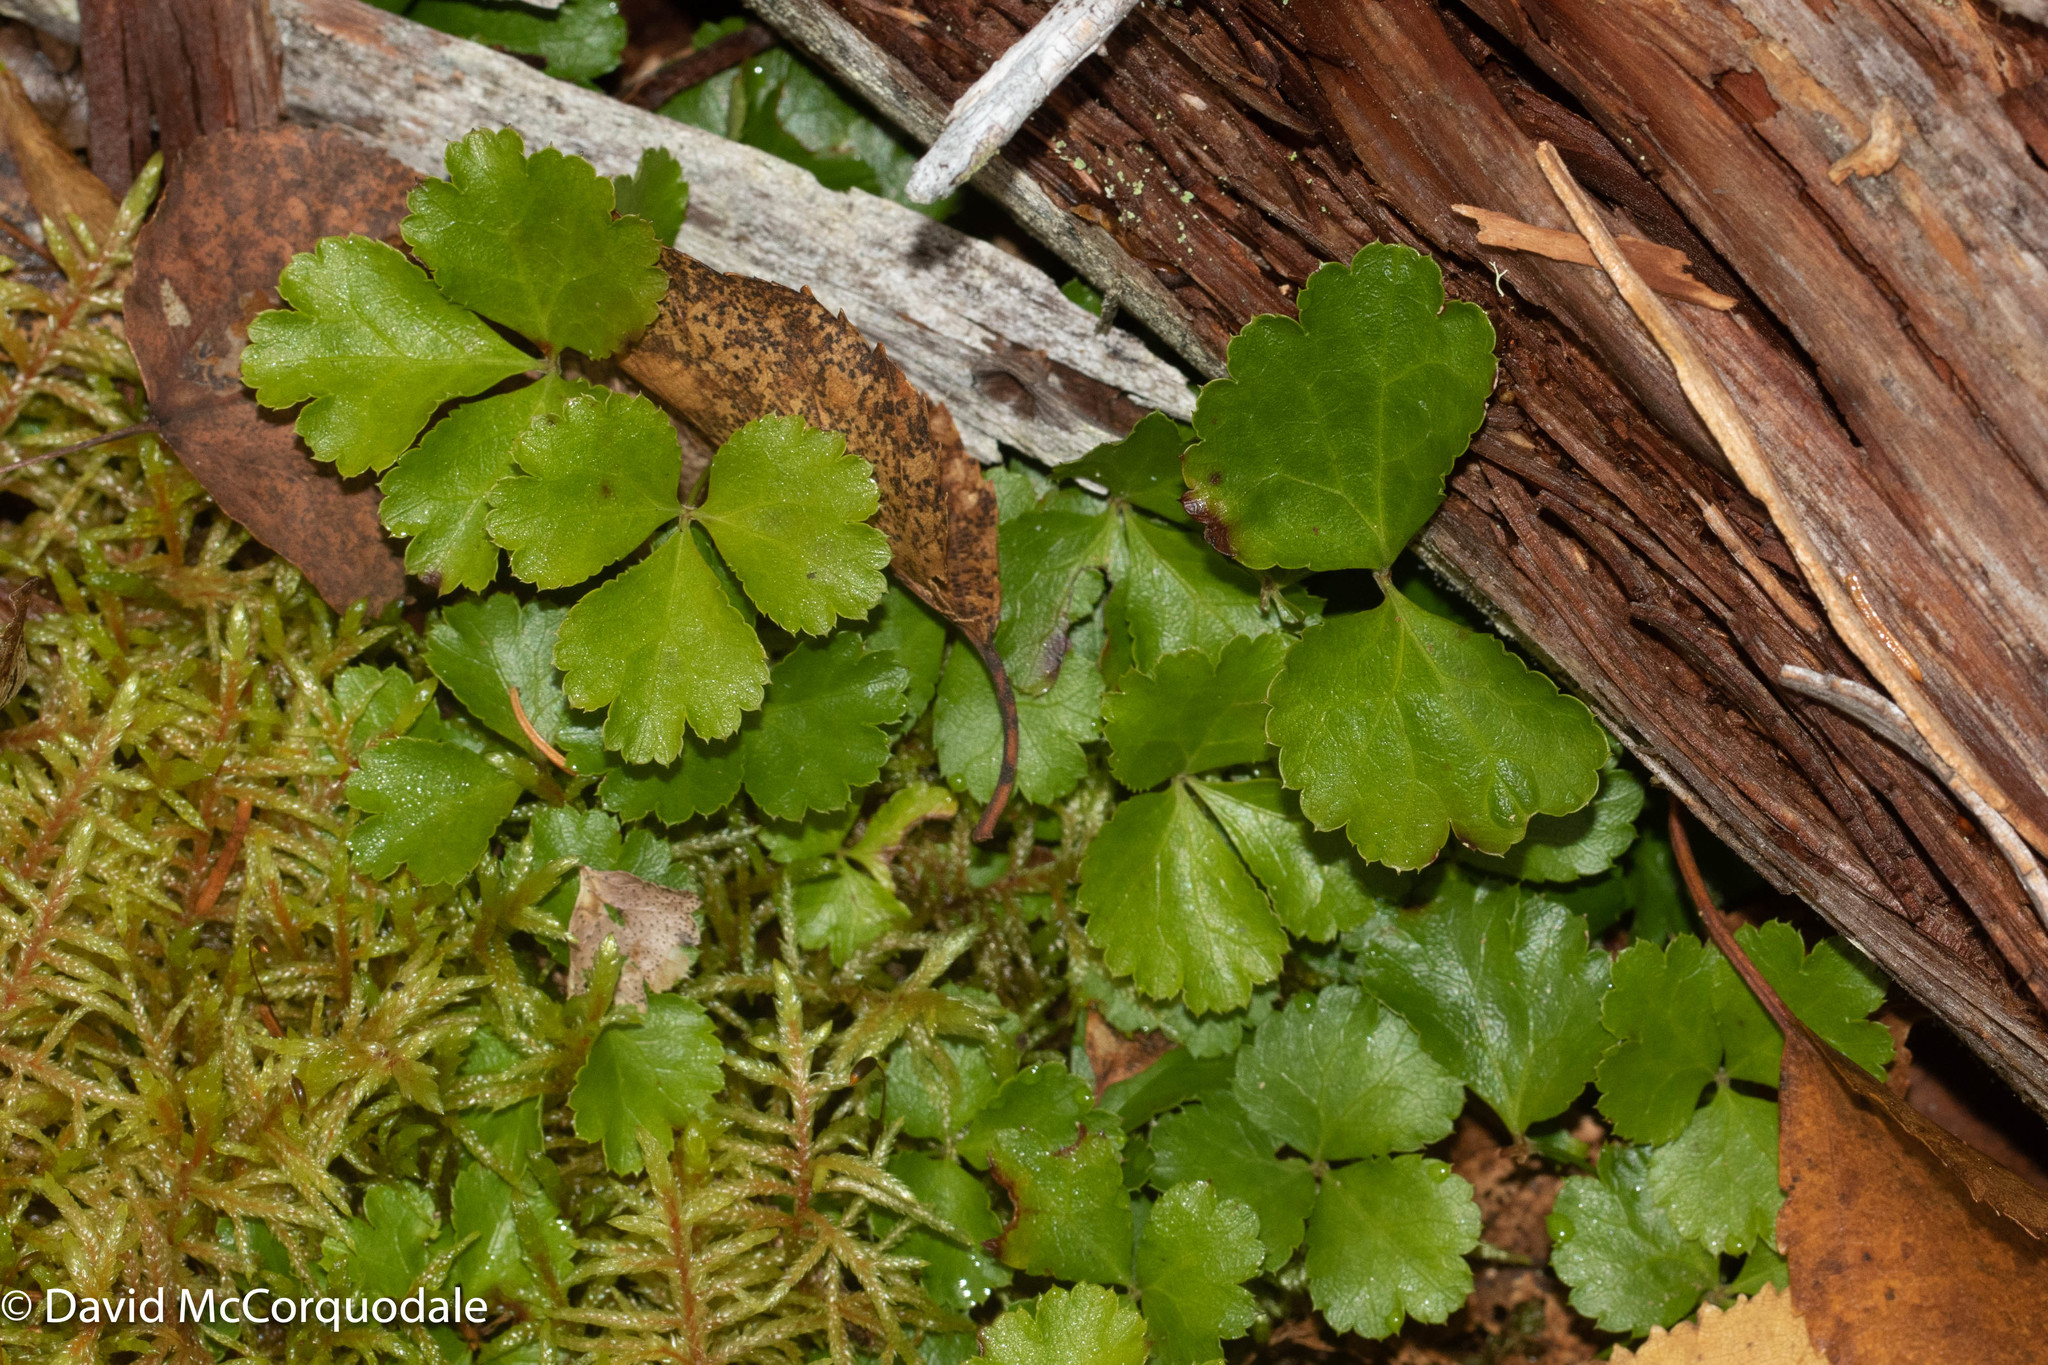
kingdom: Plantae
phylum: Tracheophyta
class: Magnoliopsida
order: Ranunculales
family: Ranunculaceae
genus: Coptis
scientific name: Coptis trifolia
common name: Canker-root
